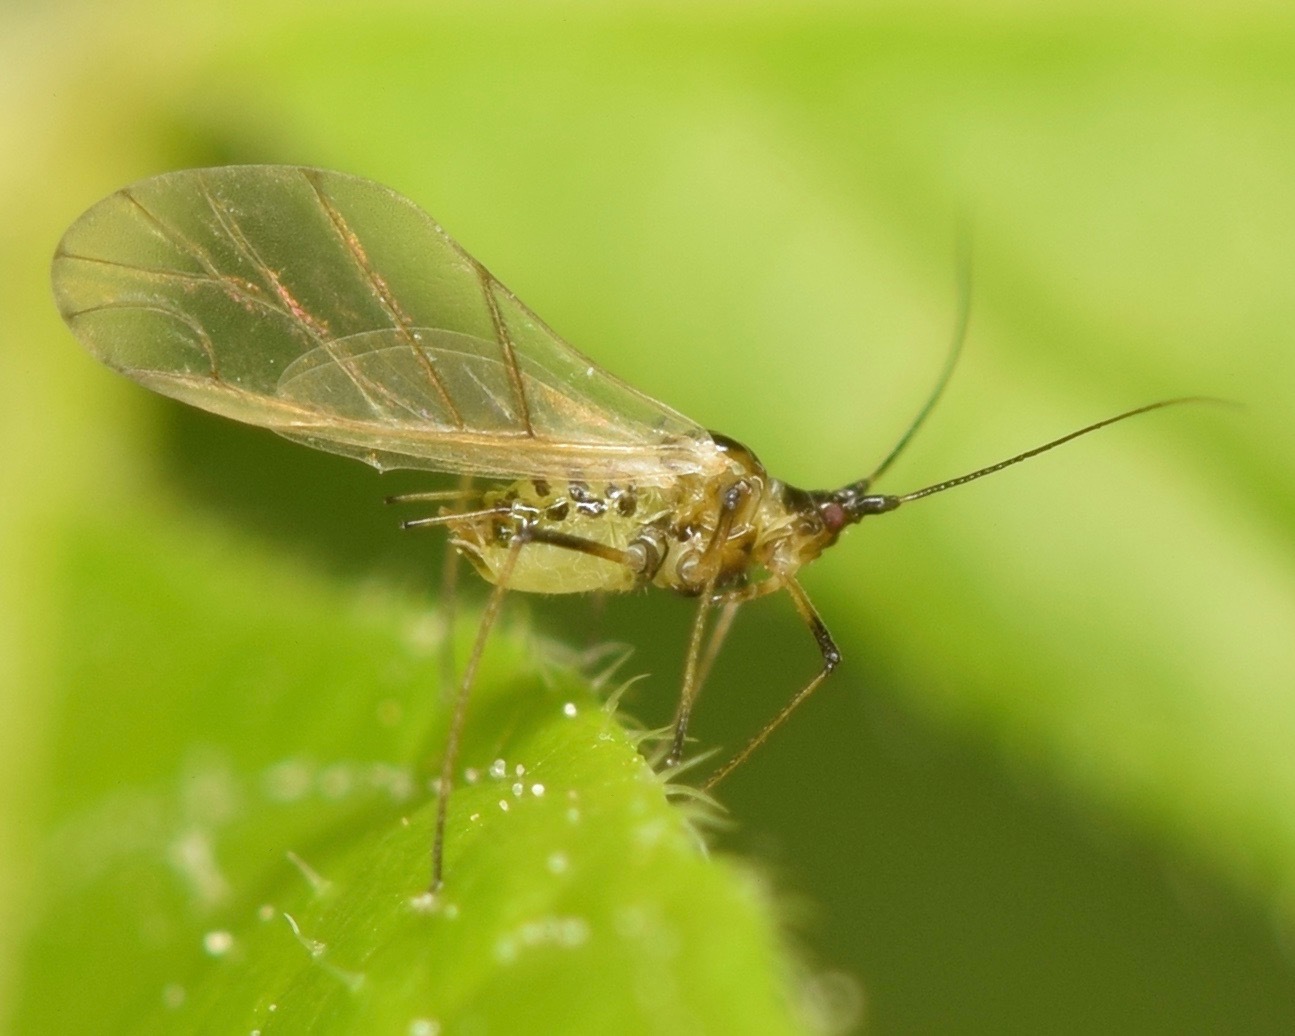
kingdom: Animalia
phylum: Arthropoda
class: Insecta
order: Hemiptera
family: Aphididae
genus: Aulacorthum
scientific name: Aulacorthum solani
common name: Foxglove aphid
